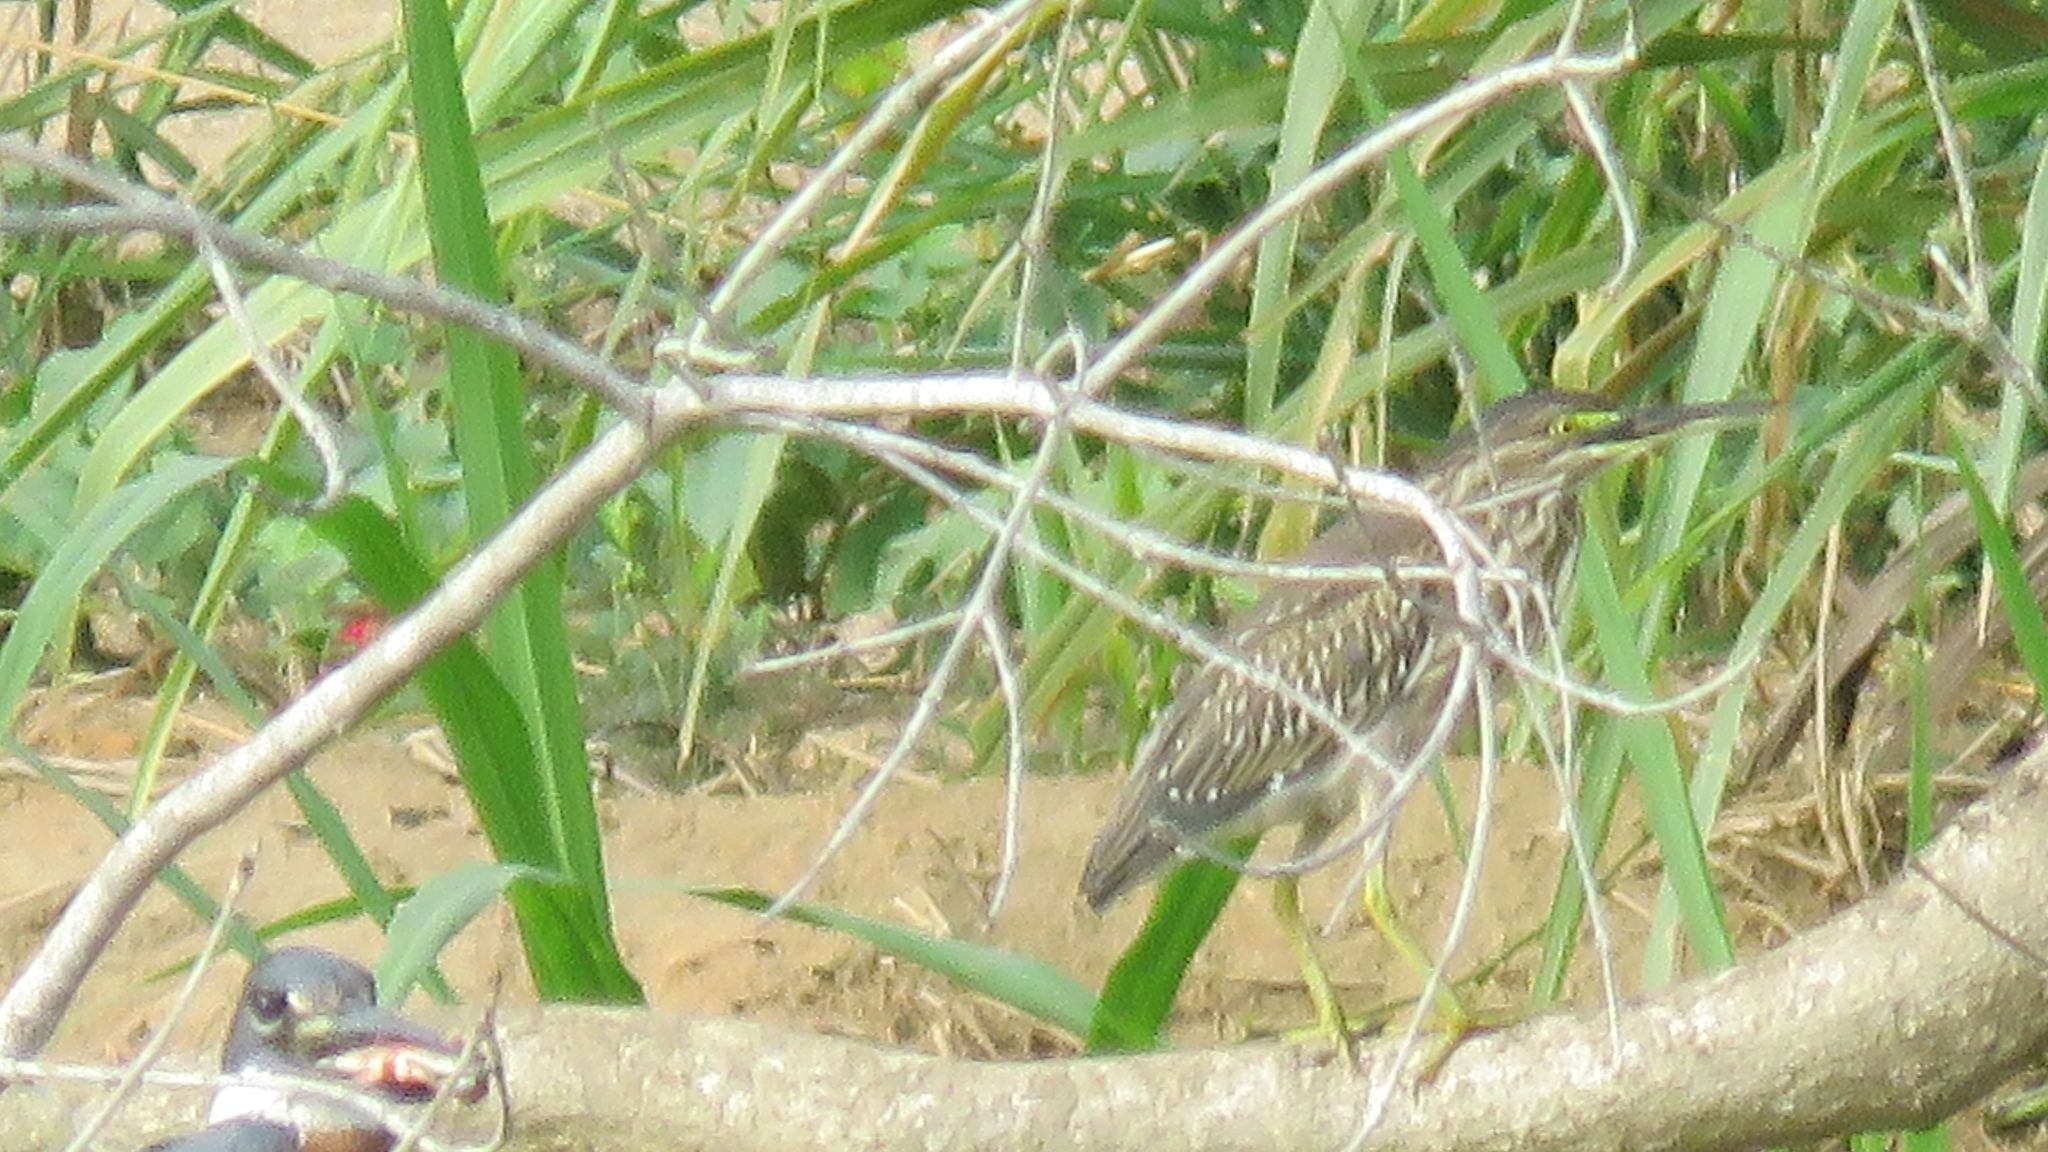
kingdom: Animalia
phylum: Chordata
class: Aves
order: Pelecaniformes
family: Ardeidae
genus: Butorides
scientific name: Butorides striata
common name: Striated heron
